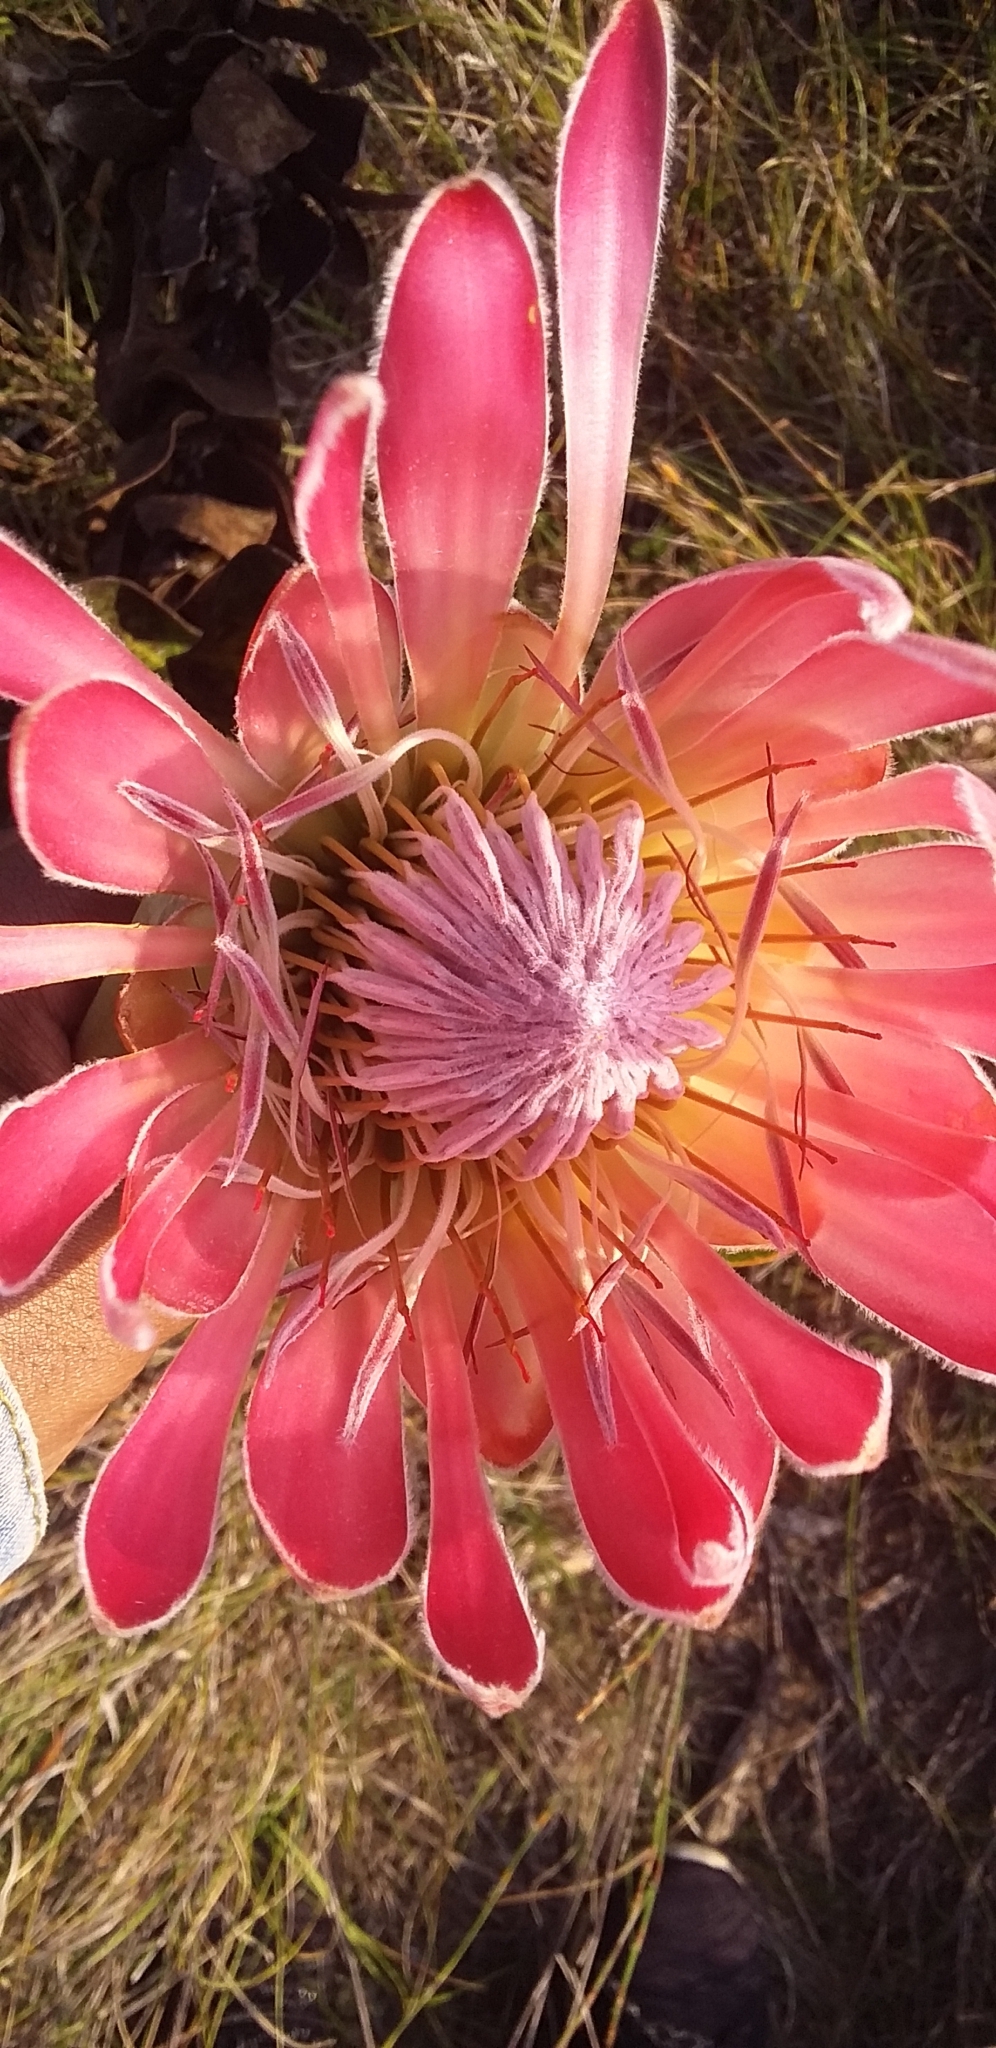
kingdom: Plantae
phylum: Tracheophyta
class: Magnoliopsida
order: Proteales
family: Proteaceae
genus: Protea
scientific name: Protea compacta
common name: Bot river protea
